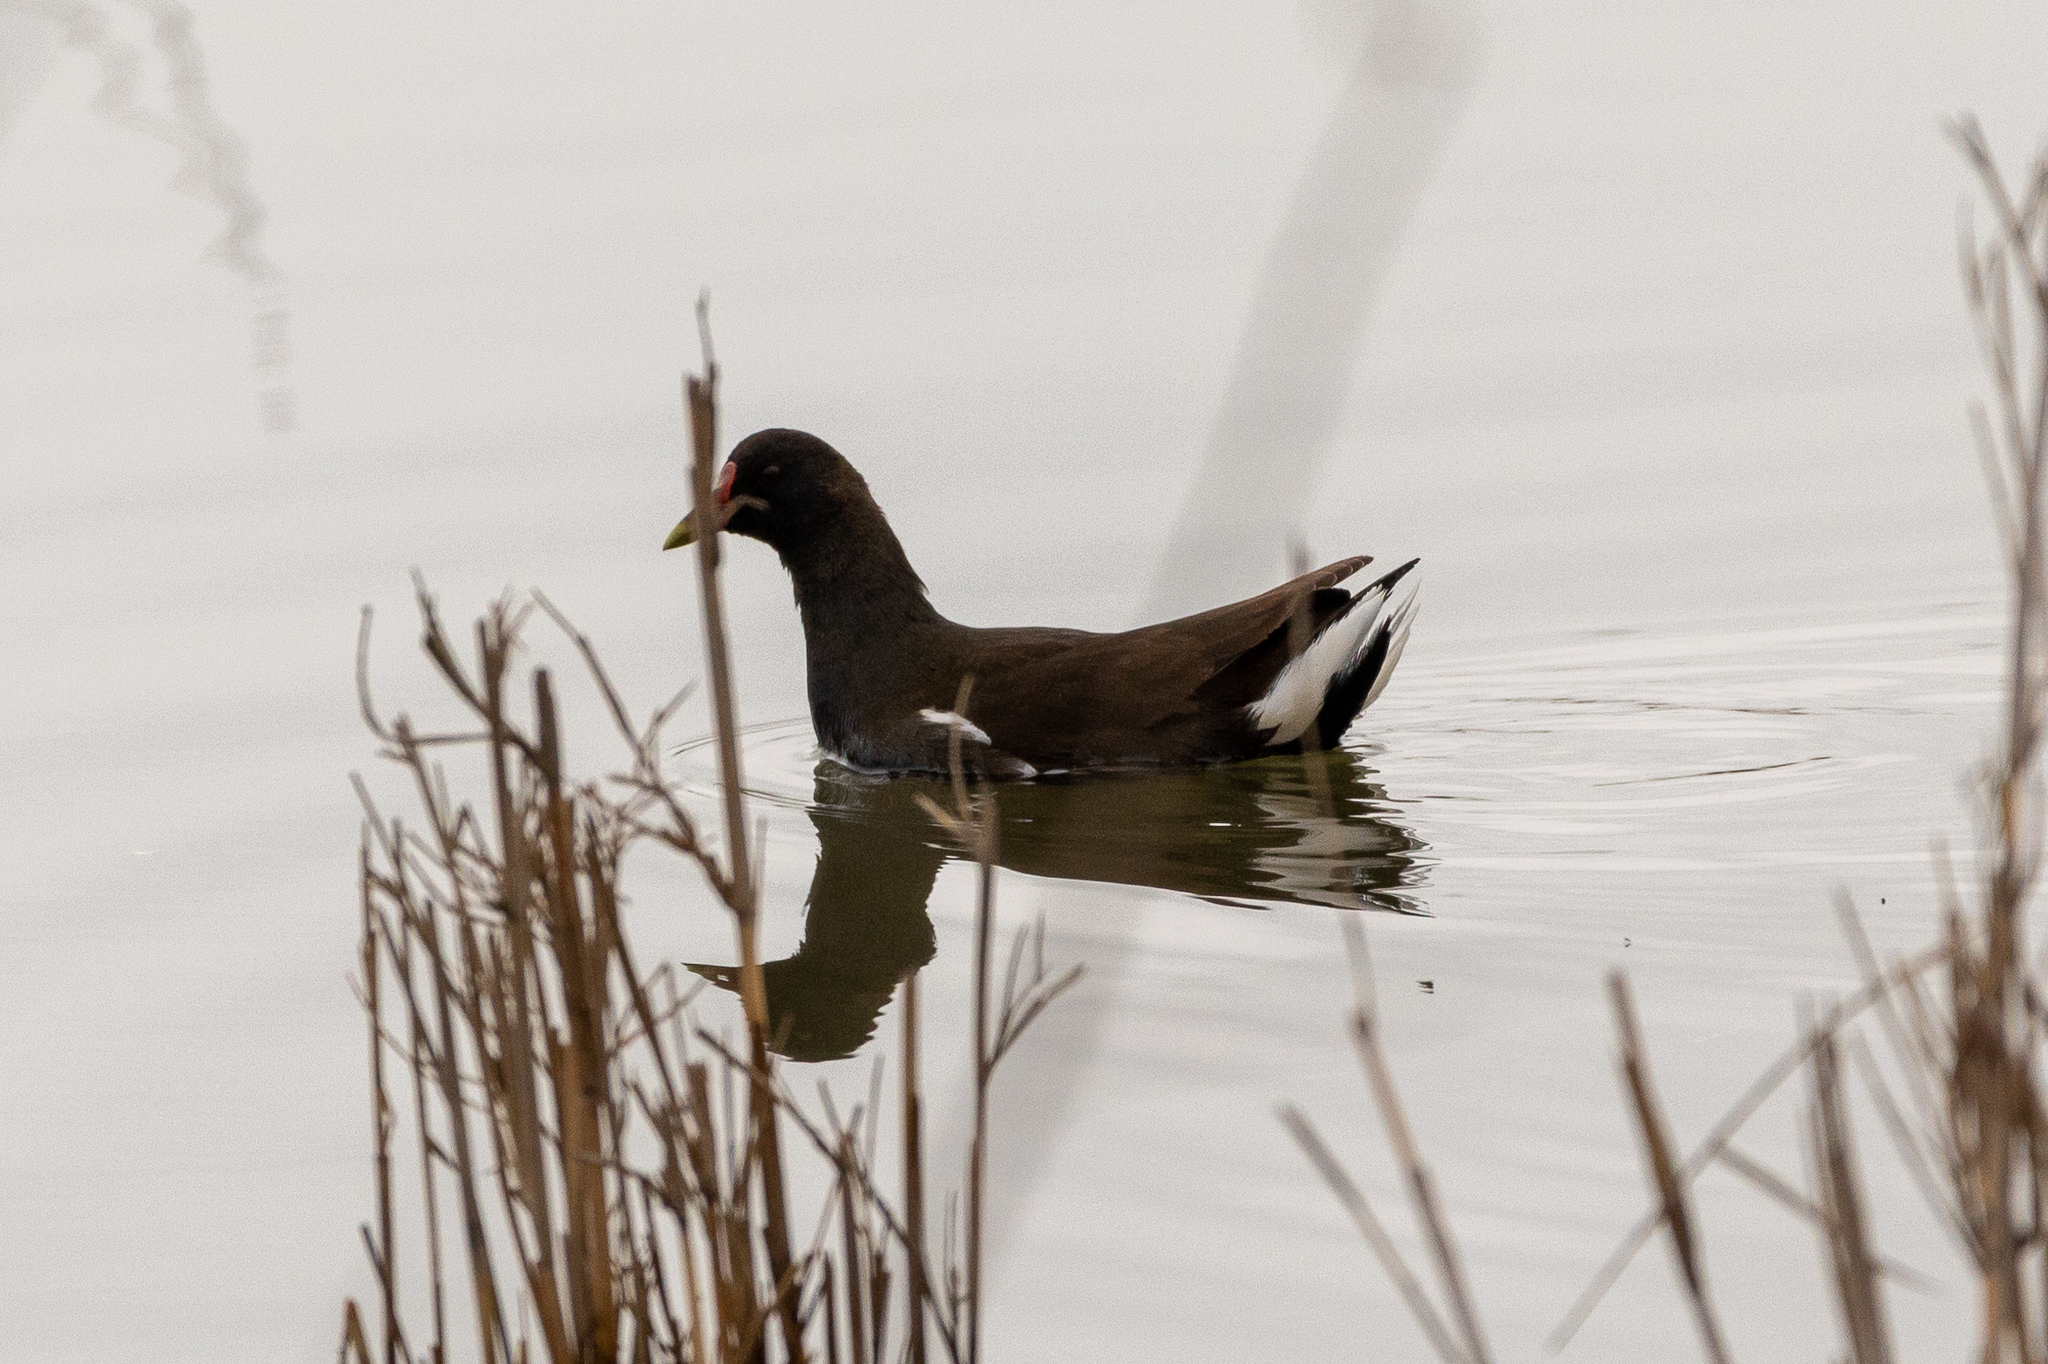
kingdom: Animalia
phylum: Chordata
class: Aves
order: Gruiformes
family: Rallidae
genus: Gallinula
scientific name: Gallinula chloropus
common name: Common moorhen
